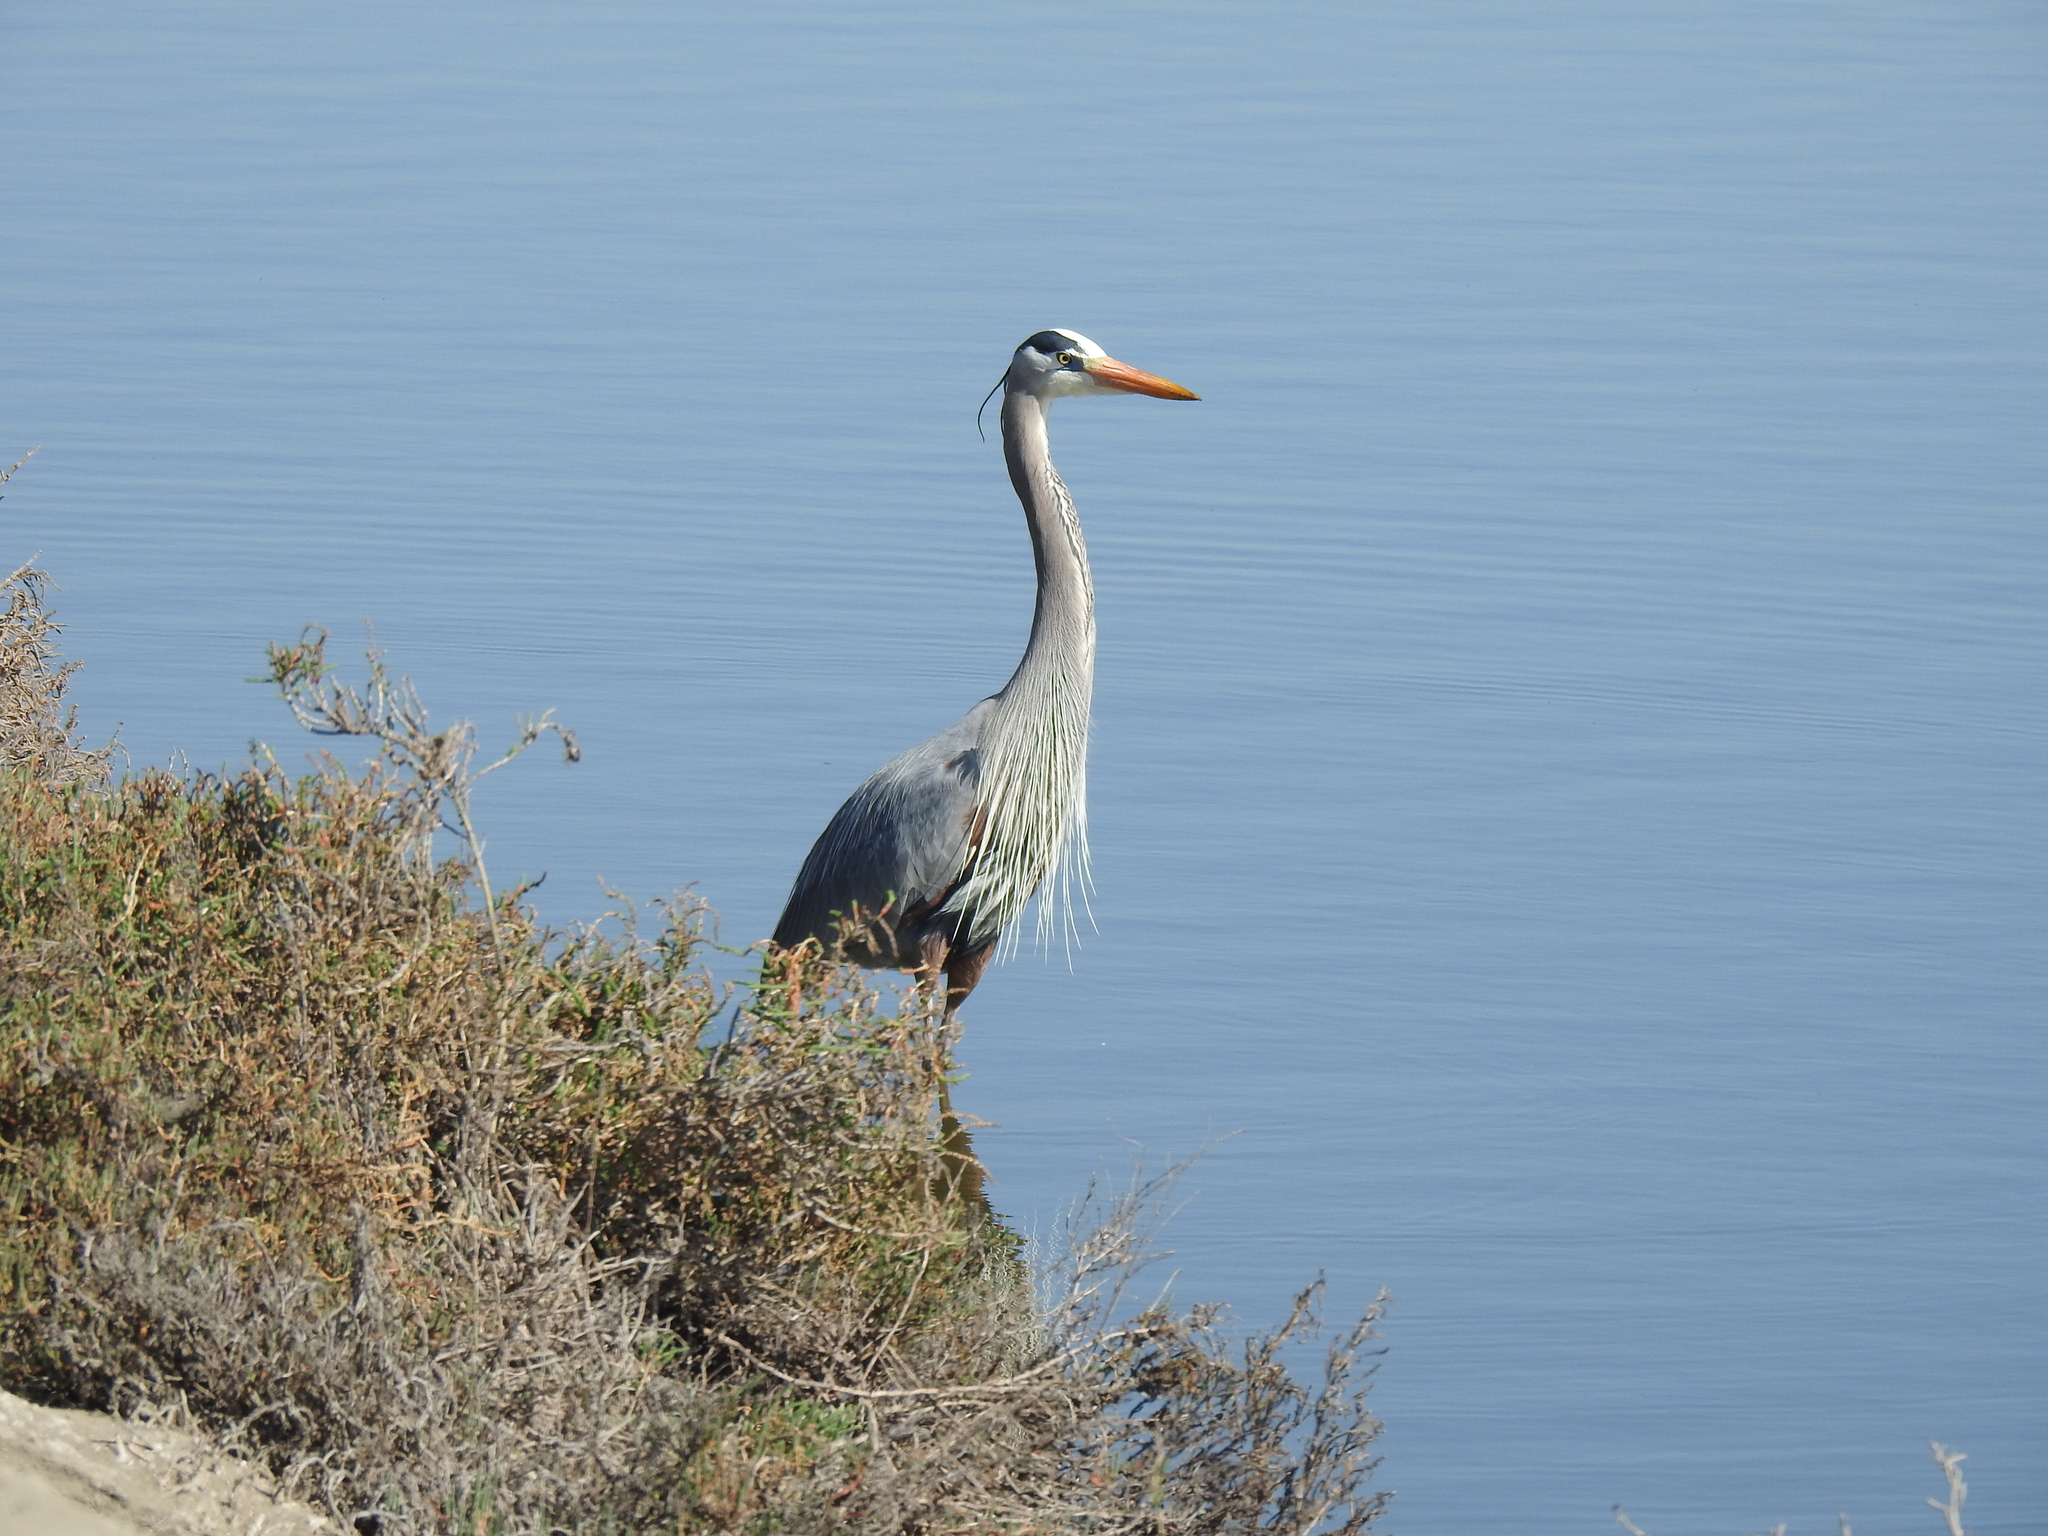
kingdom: Animalia
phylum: Chordata
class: Aves
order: Pelecaniformes
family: Ardeidae
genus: Ardea
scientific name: Ardea herodias
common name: Great blue heron
